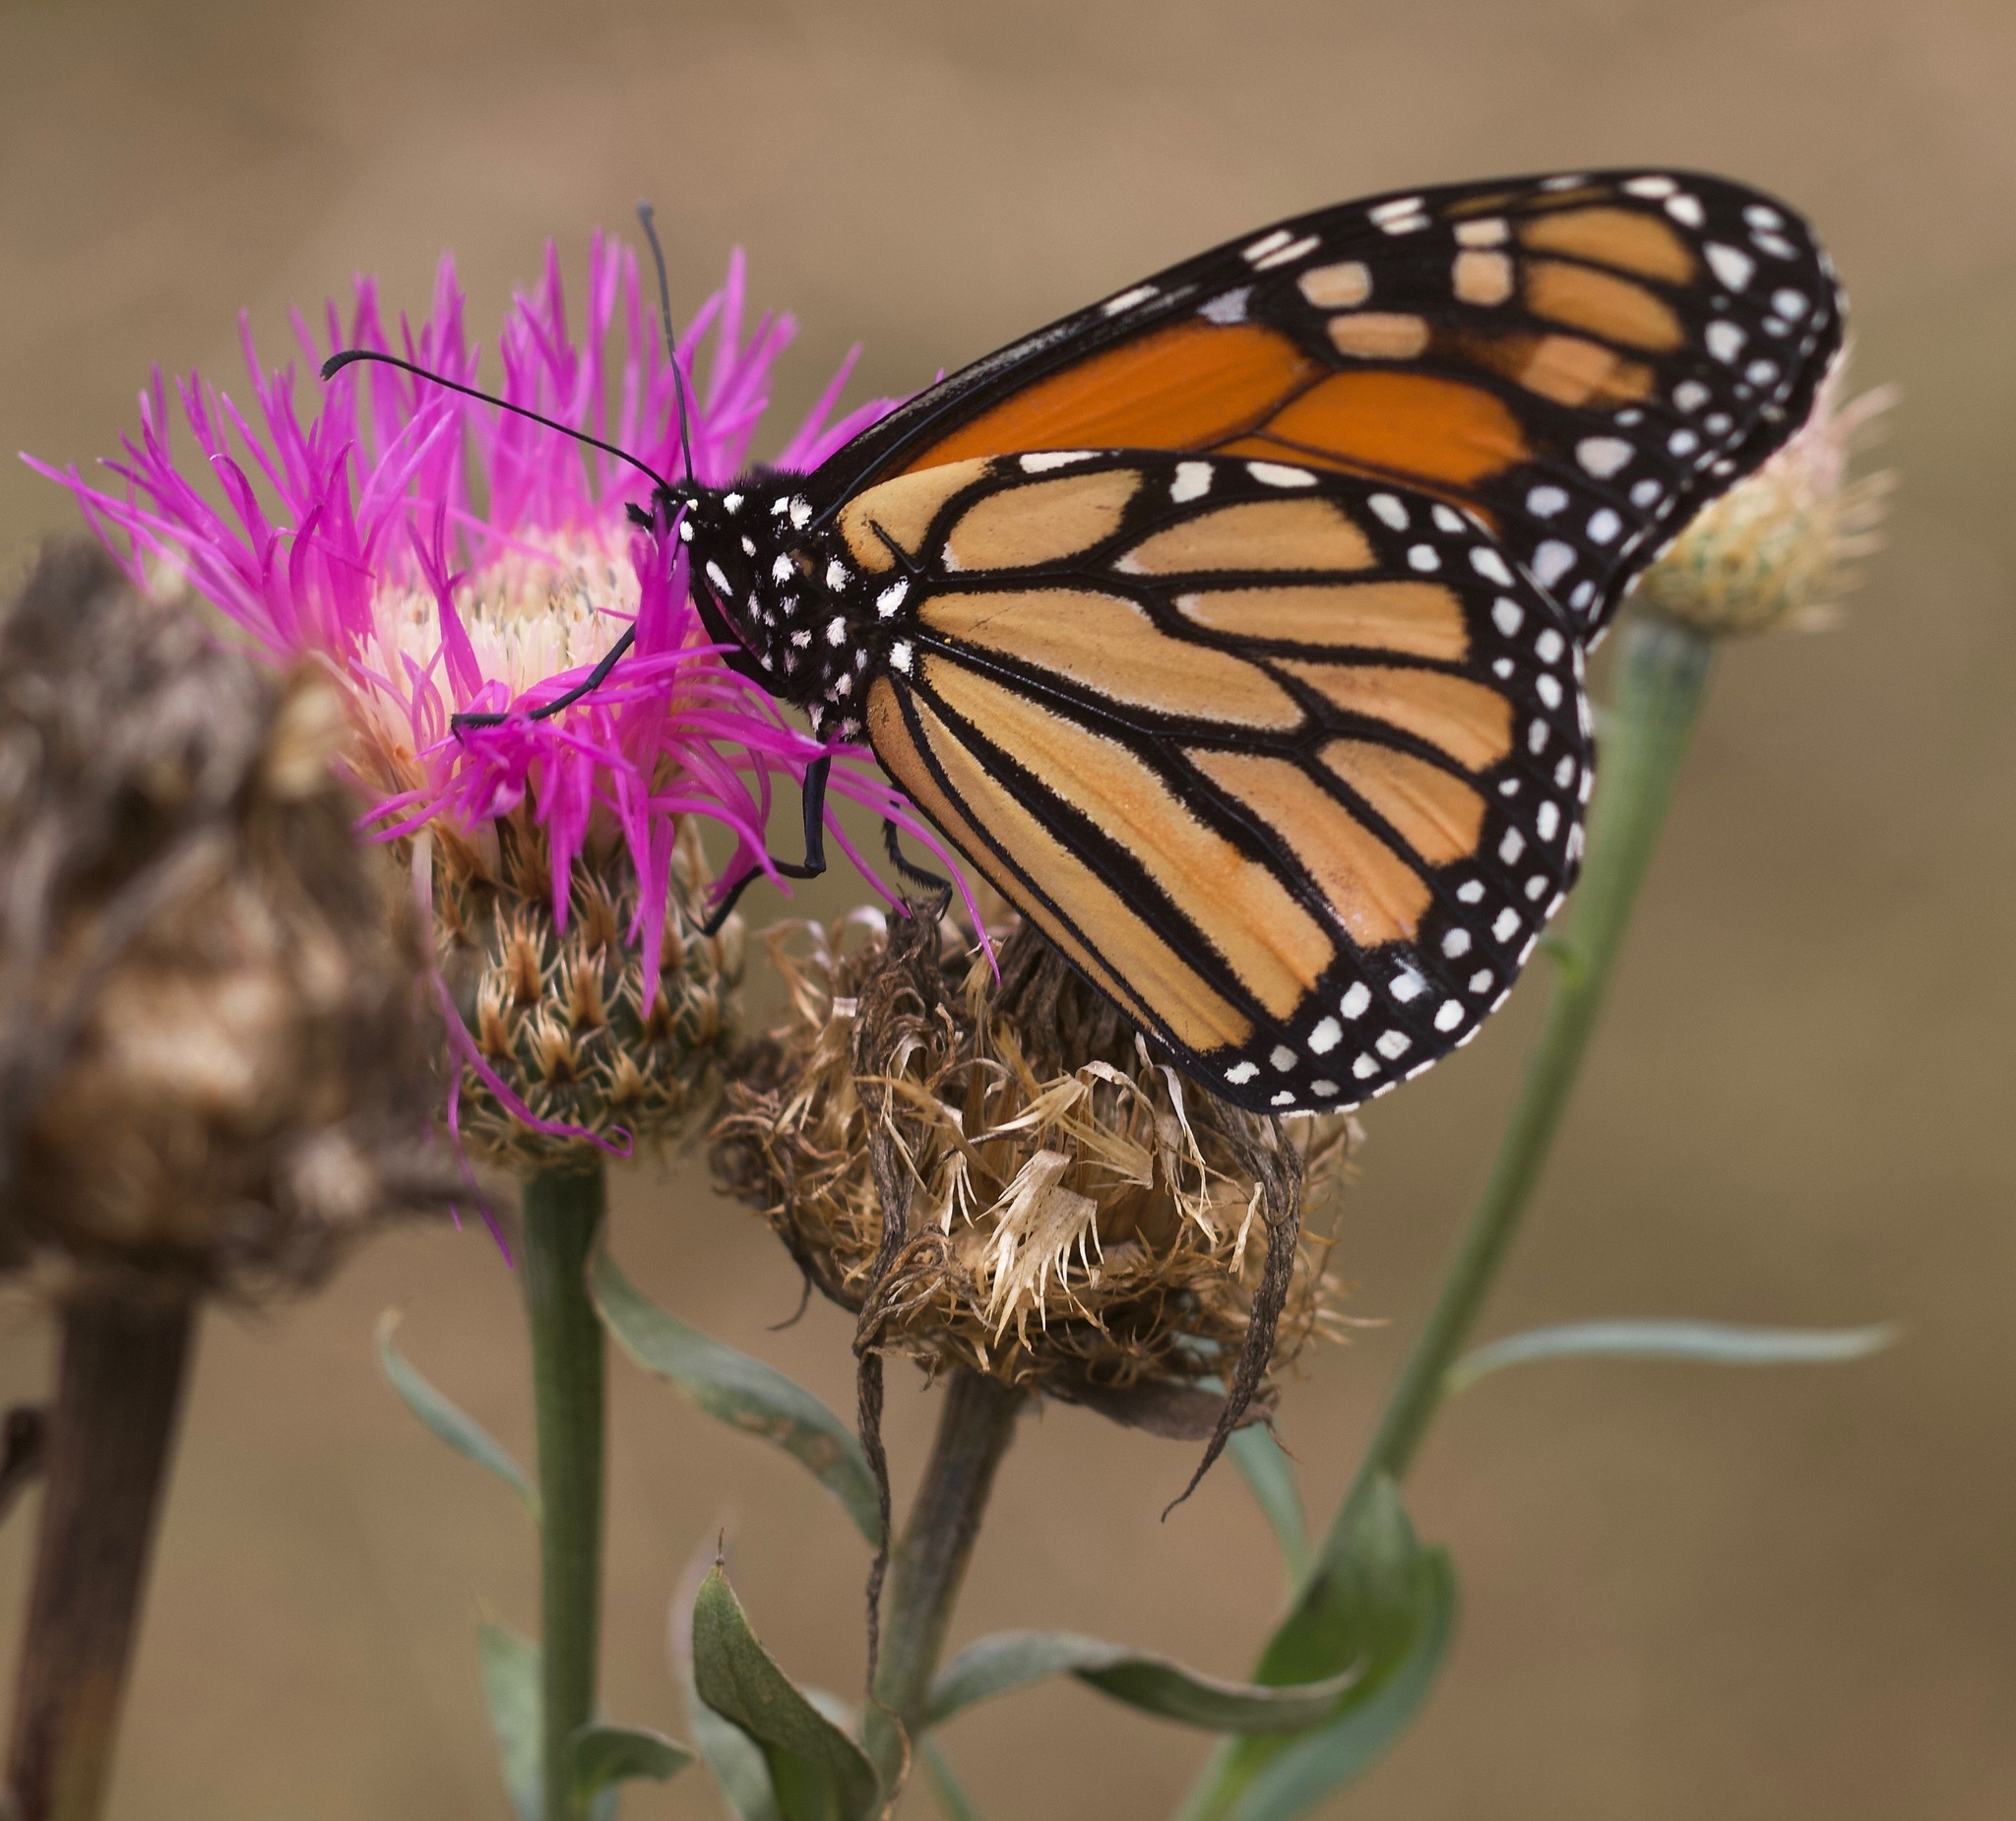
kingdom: Animalia
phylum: Arthropoda
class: Insecta
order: Lepidoptera
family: Nymphalidae
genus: Danaus
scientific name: Danaus plexippus
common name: Monarch
